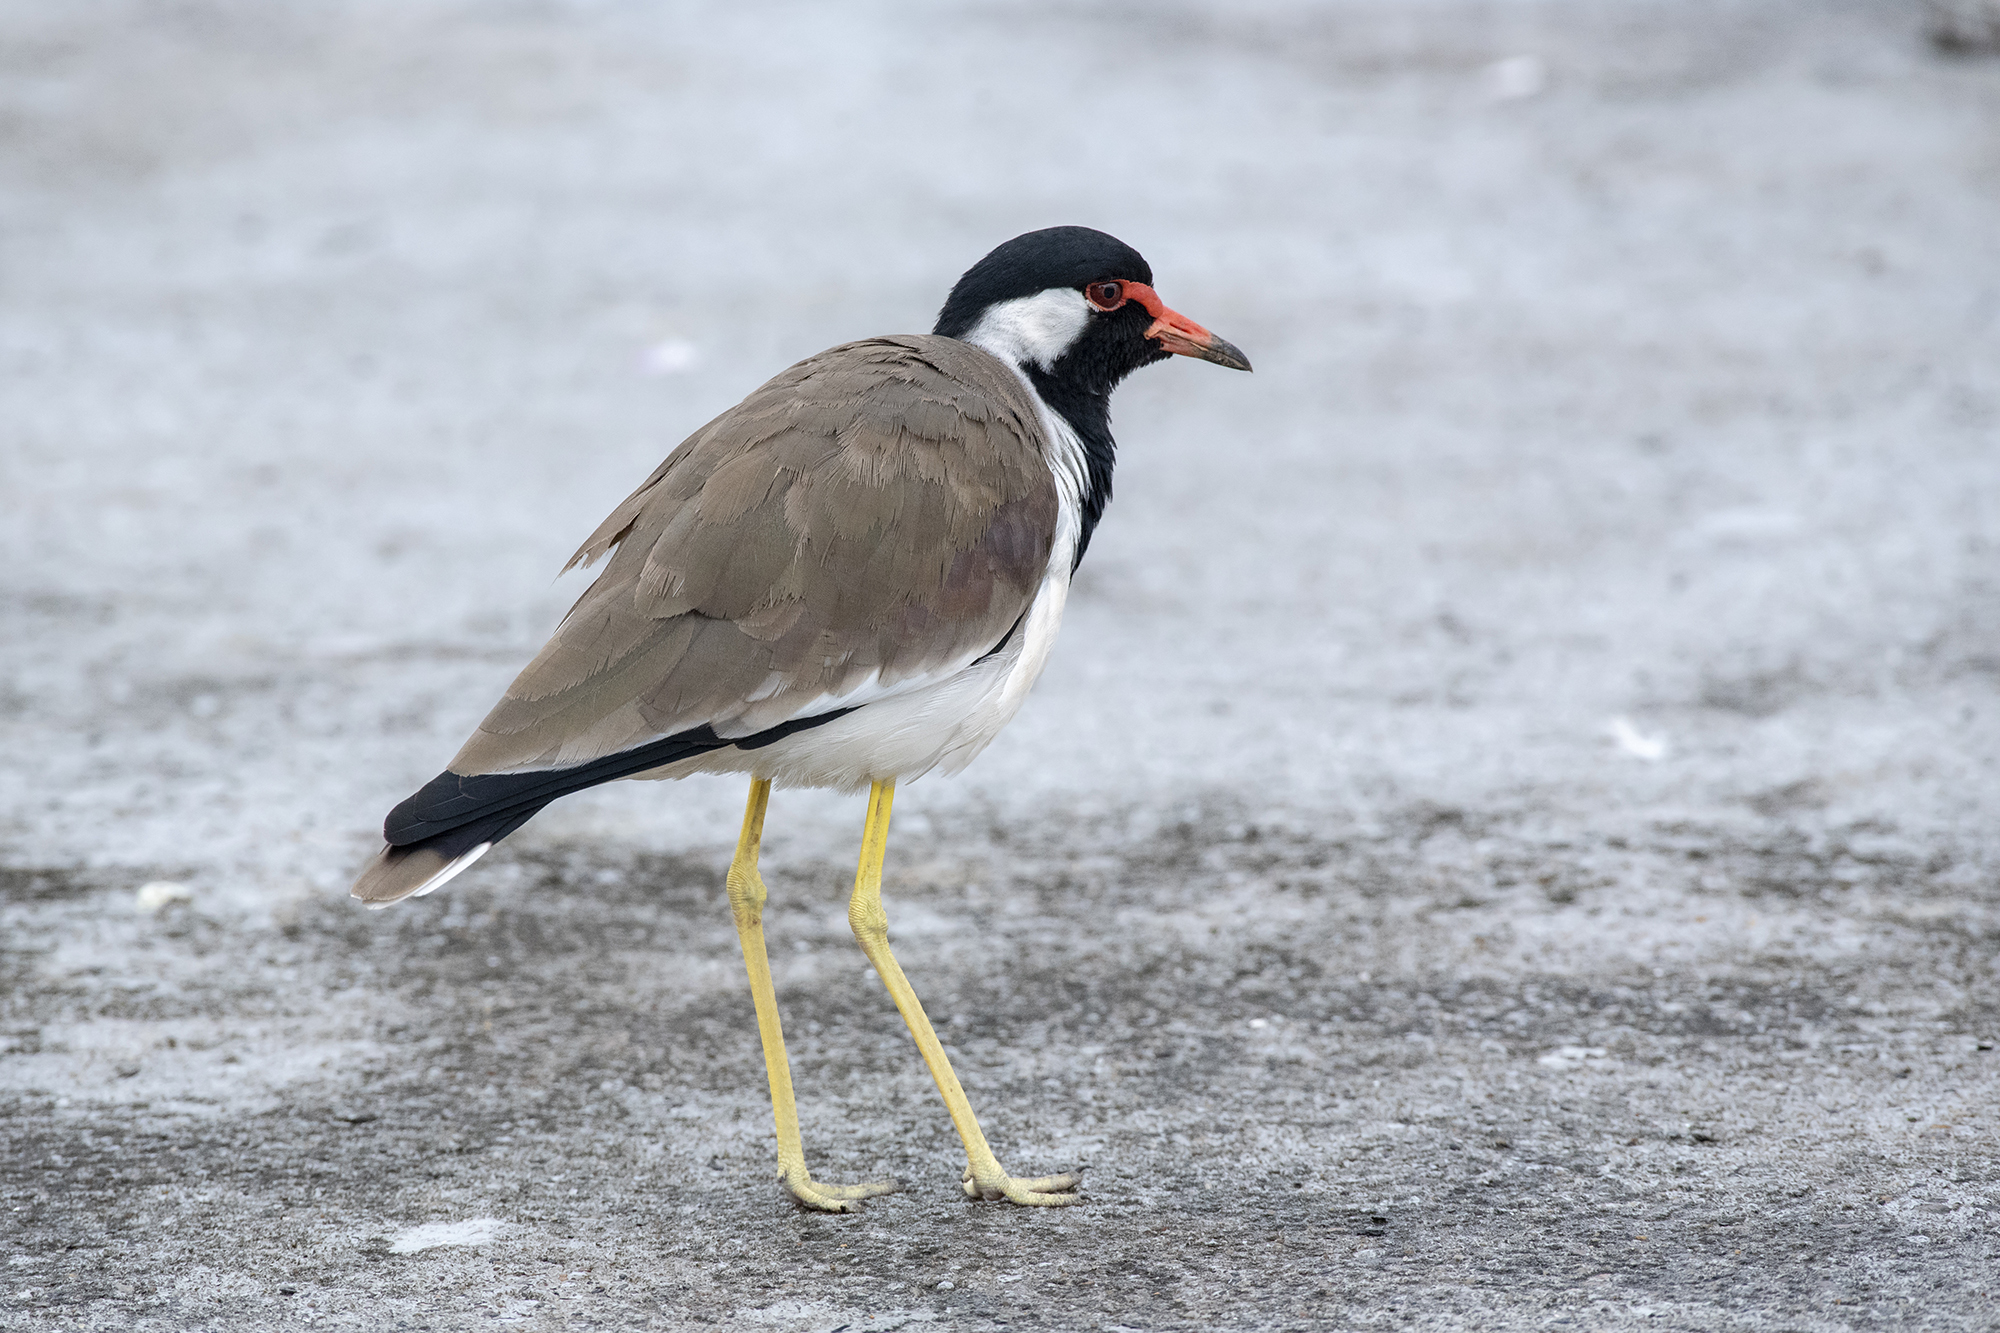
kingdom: Animalia
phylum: Chordata
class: Aves
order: Charadriiformes
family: Charadriidae
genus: Vanellus
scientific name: Vanellus indicus
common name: Red-wattled lapwing
